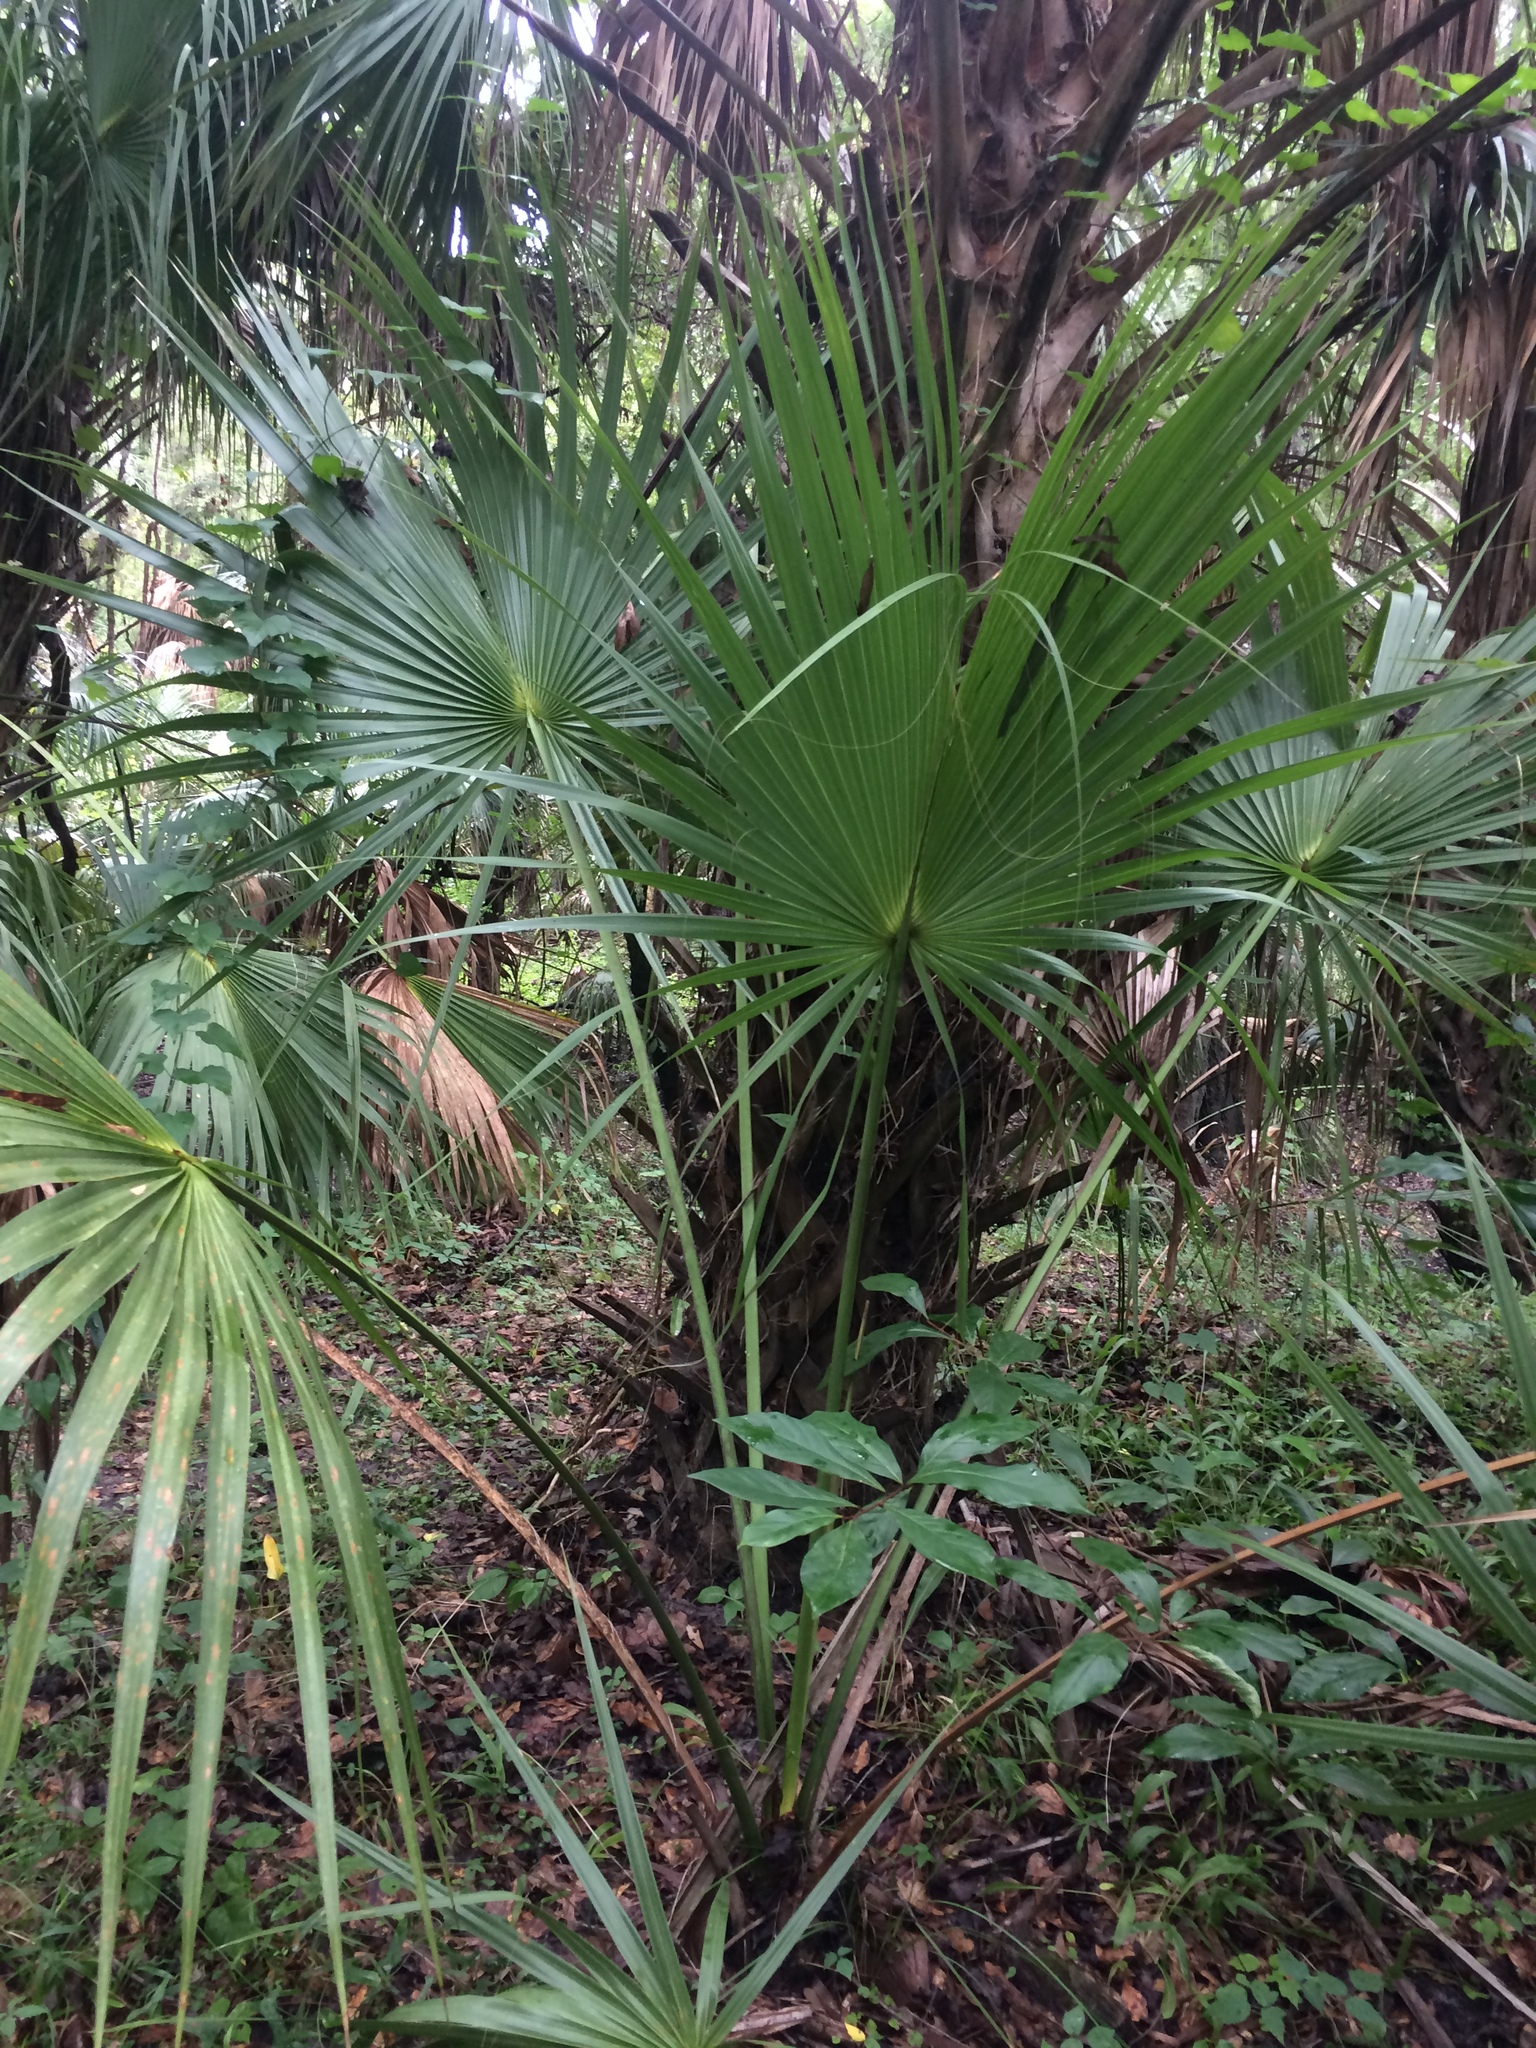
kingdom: Plantae
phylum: Tracheophyta
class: Liliopsida
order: Arecales
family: Arecaceae
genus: Sabal
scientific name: Sabal palmetto
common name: Blue palmetto
